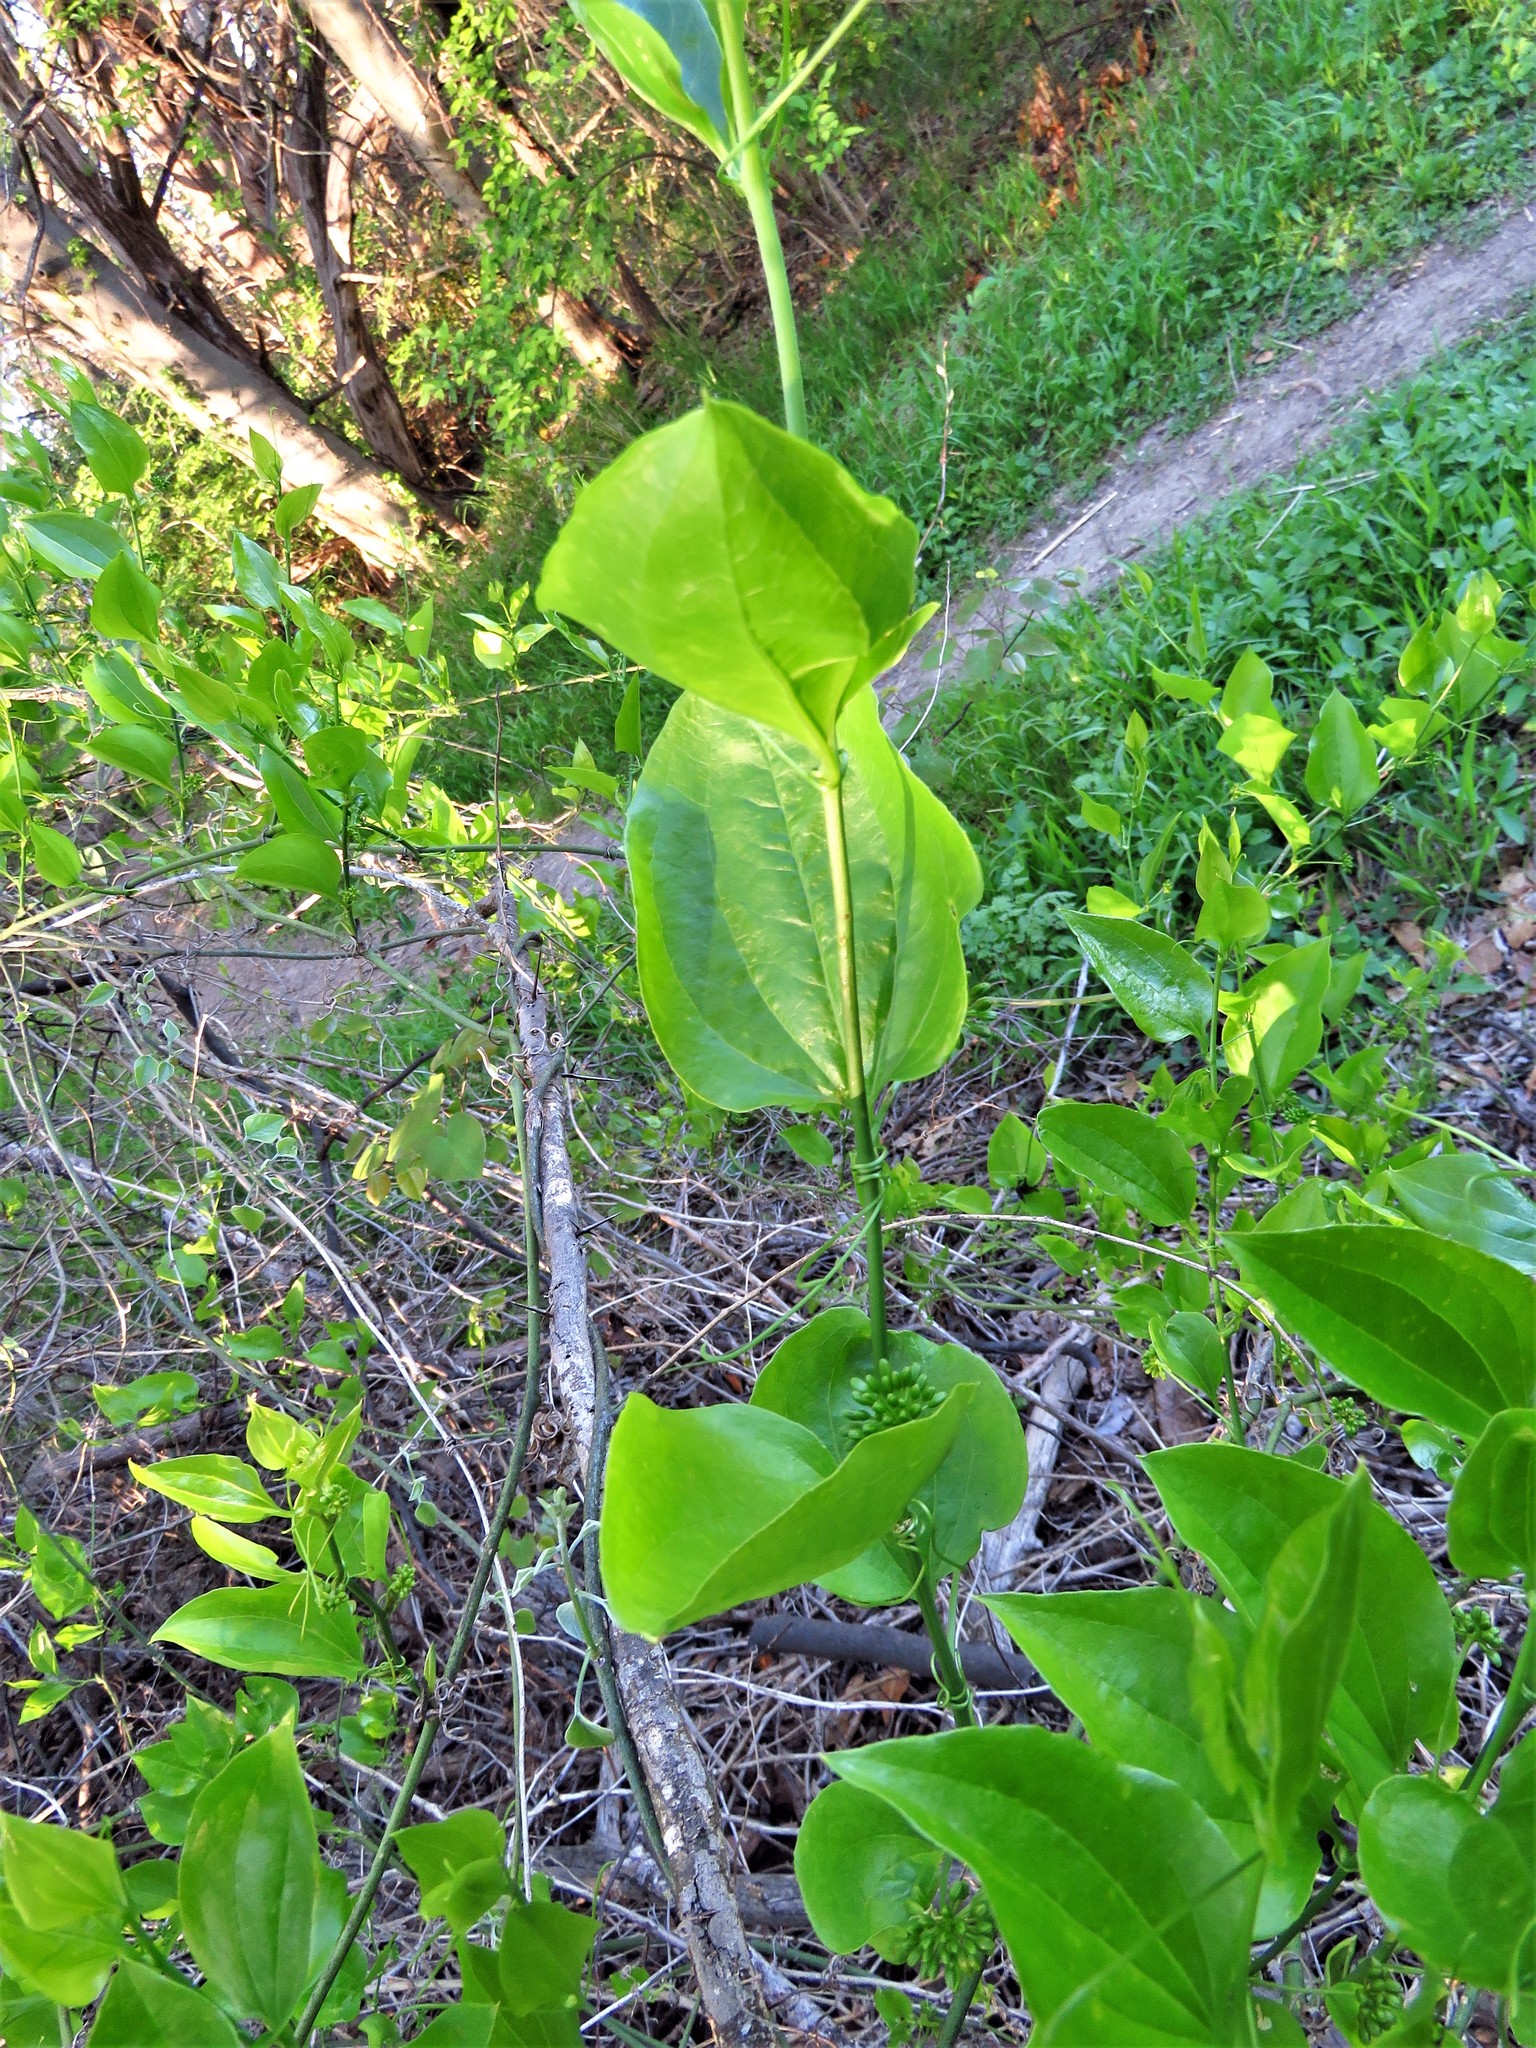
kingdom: Plantae
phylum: Tracheophyta
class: Liliopsida
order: Liliales
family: Smilacaceae
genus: Smilax
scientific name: Smilax rotundifolia
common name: Bullbriar
